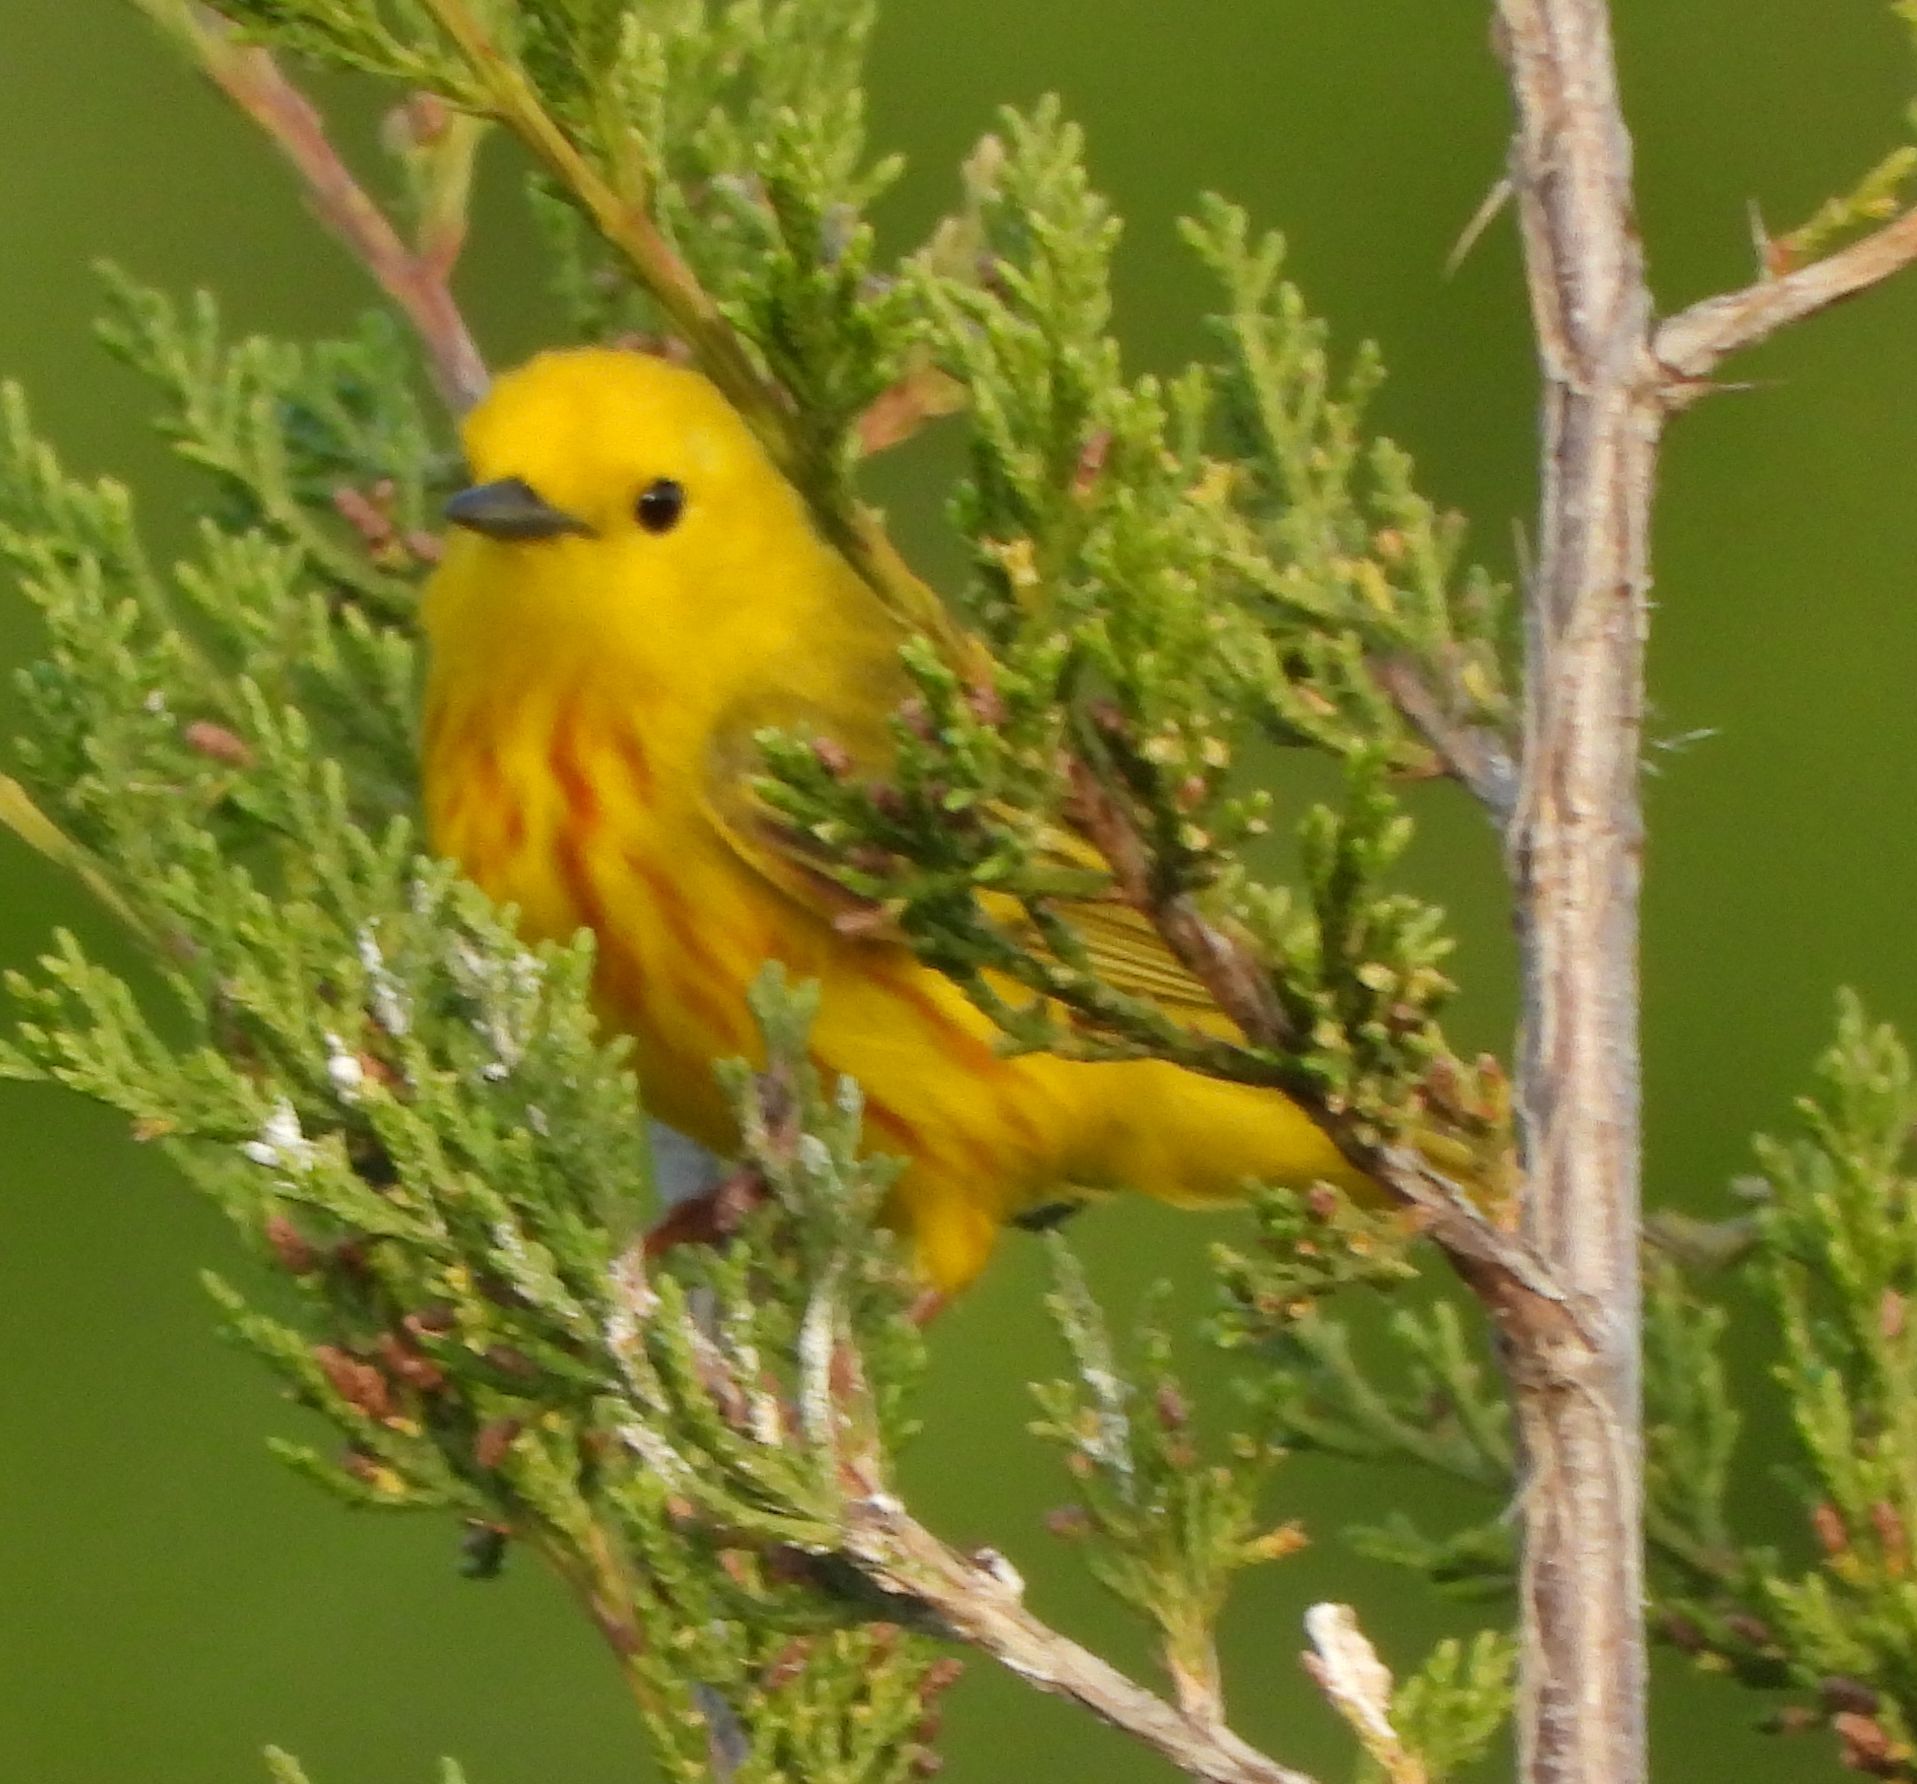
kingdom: Animalia
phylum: Chordata
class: Aves
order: Passeriformes
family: Parulidae
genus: Setophaga
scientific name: Setophaga petechia
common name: Yellow warbler
